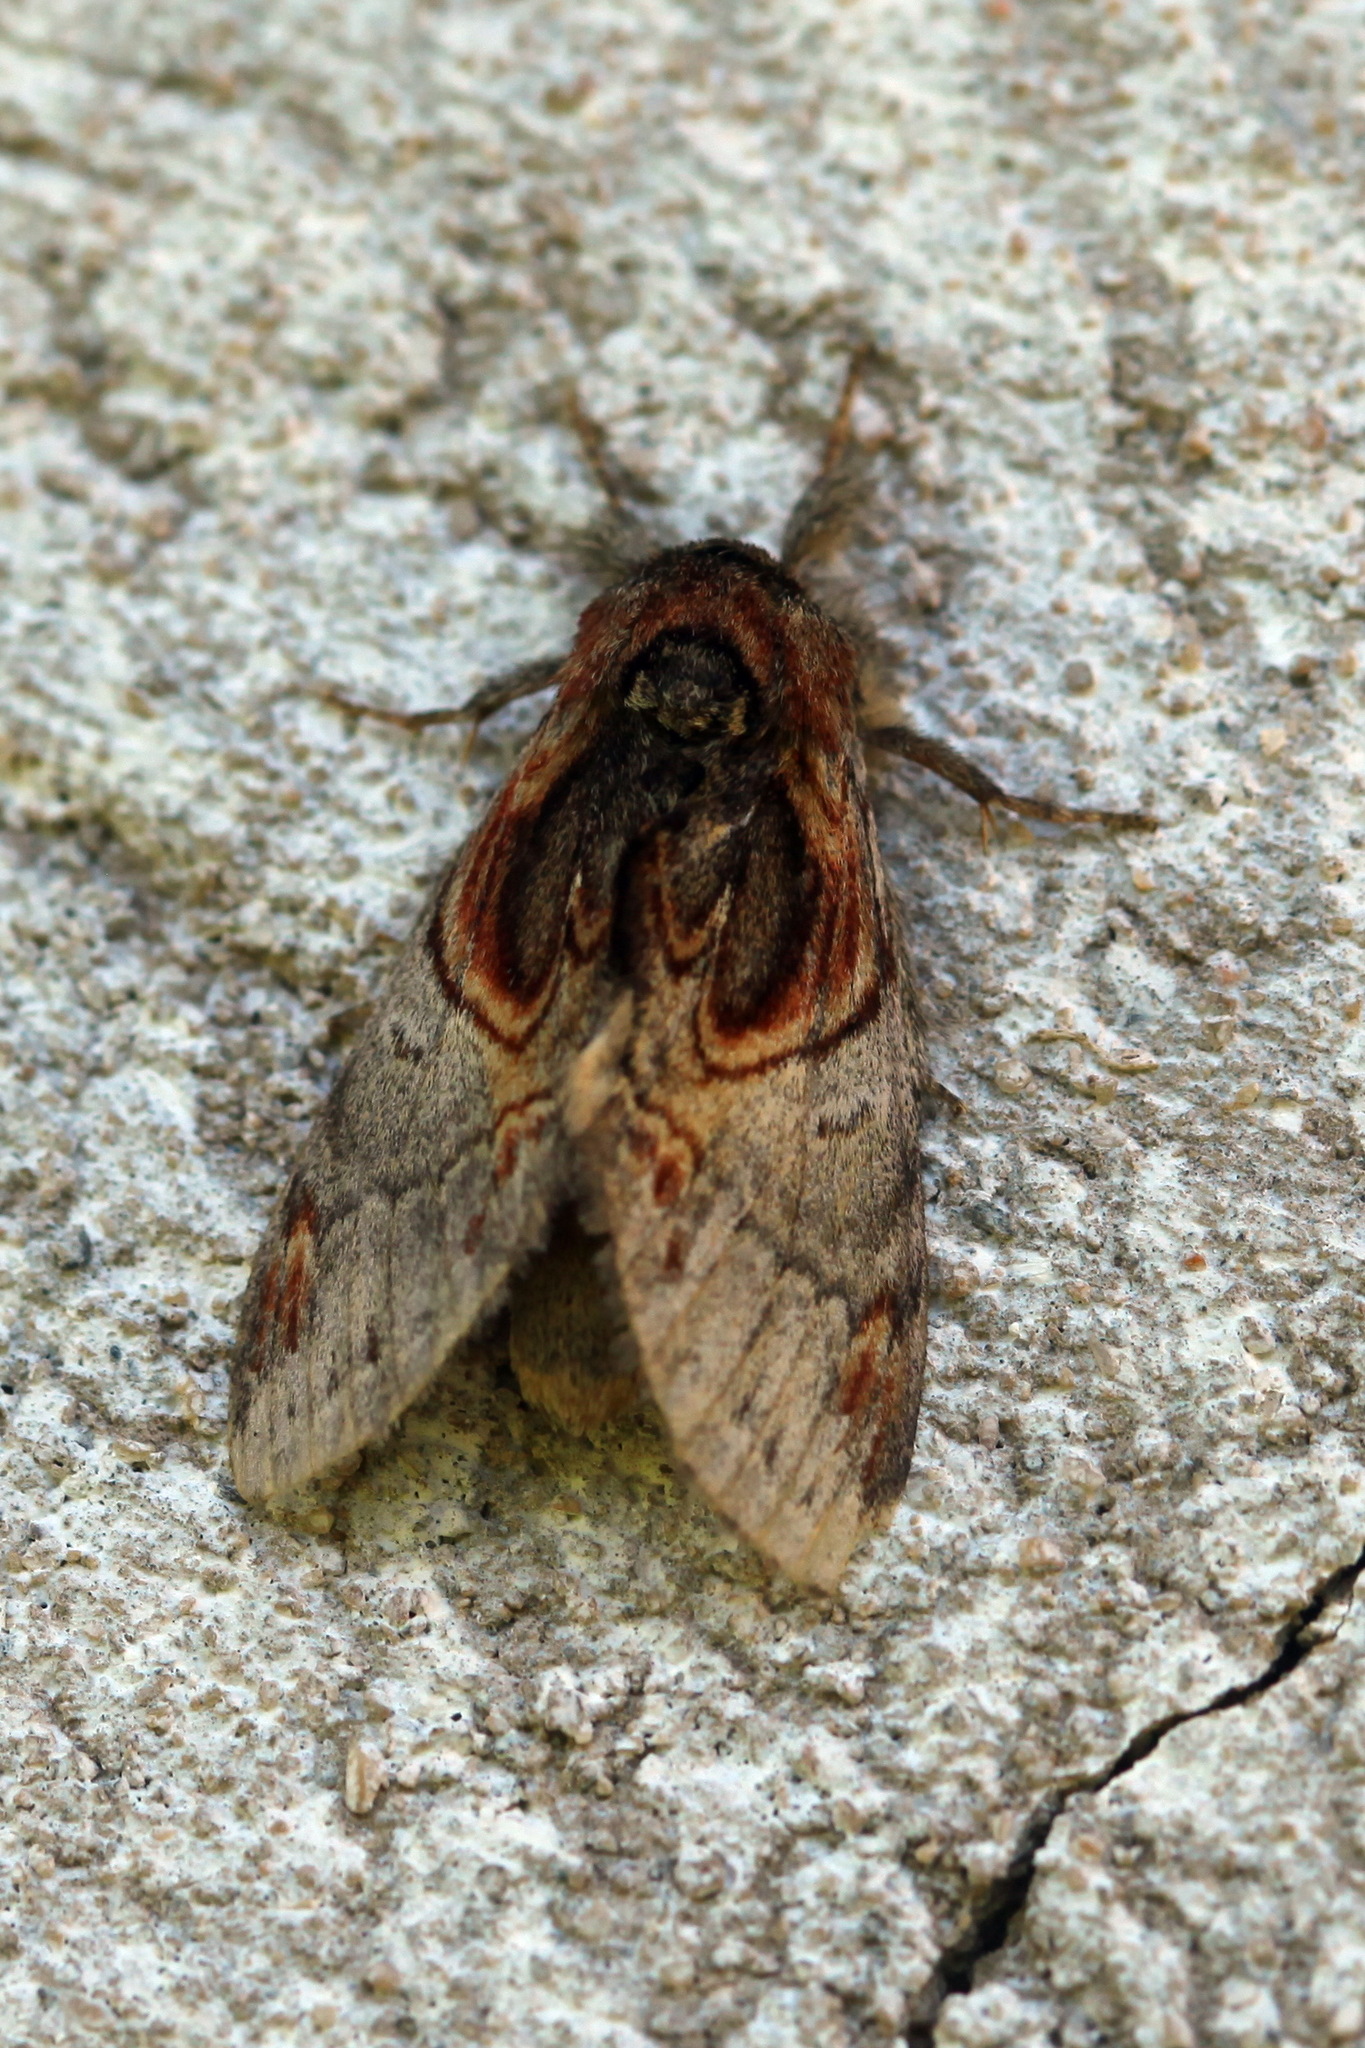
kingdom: Animalia
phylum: Arthropoda
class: Insecta
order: Lepidoptera
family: Notodontidae
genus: Peridea
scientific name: Peridea aliena
